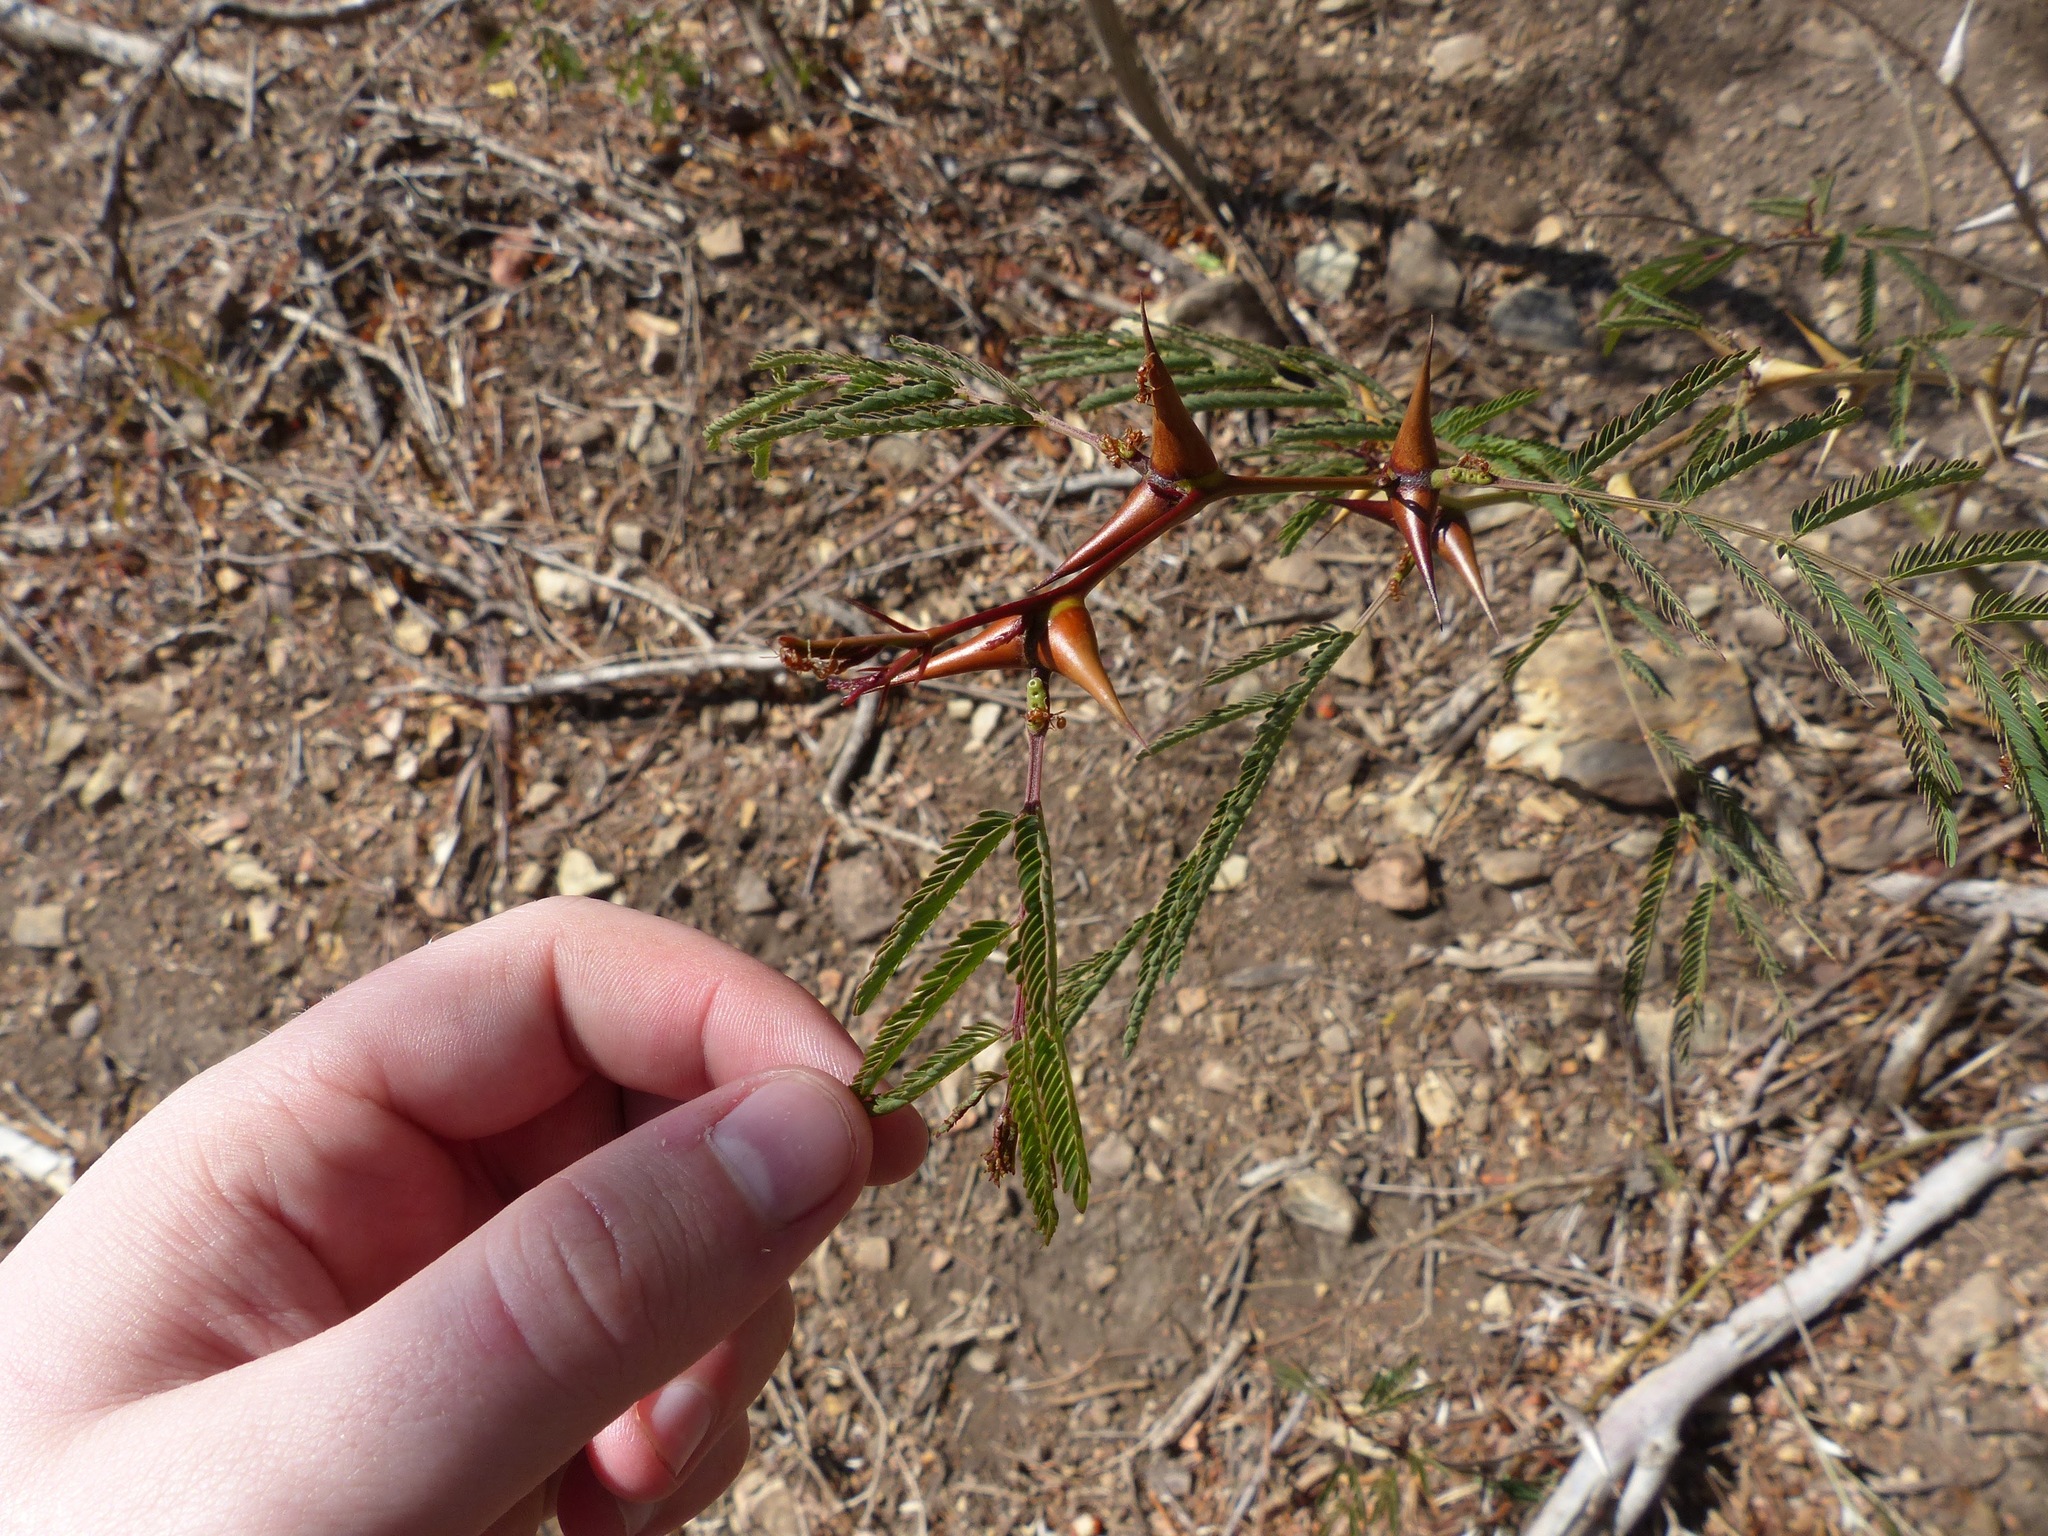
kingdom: Plantae
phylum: Tracheophyta
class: Magnoliopsida
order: Fabales
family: Fabaceae
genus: Vachellia
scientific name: Vachellia collinsii
